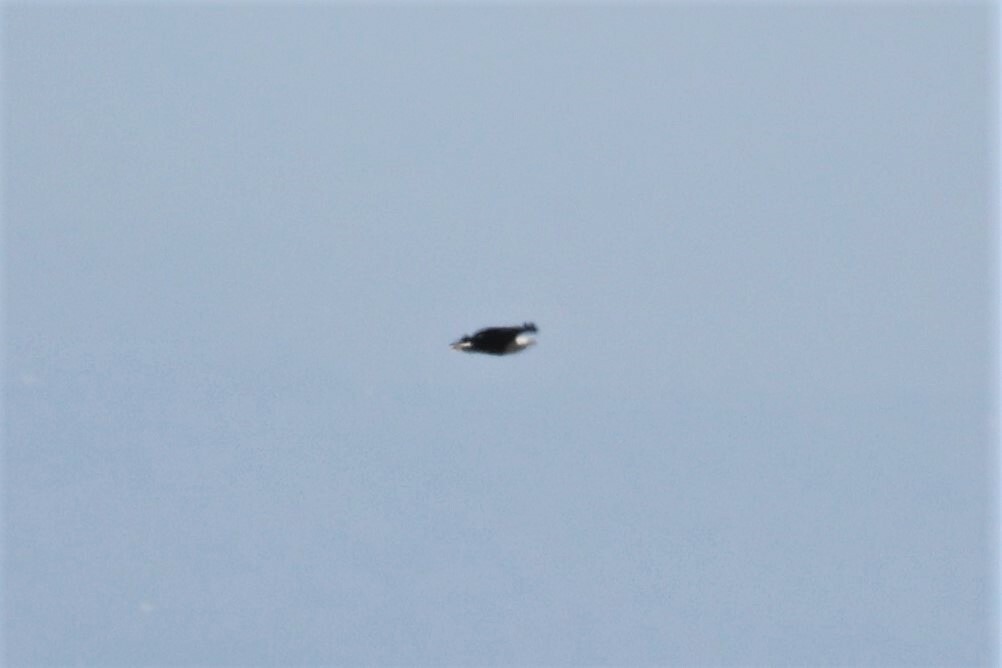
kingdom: Animalia
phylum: Chordata
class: Aves
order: Accipitriformes
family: Accipitridae
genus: Haliaeetus
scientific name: Haliaeetus vocifer
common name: African fish eagle
